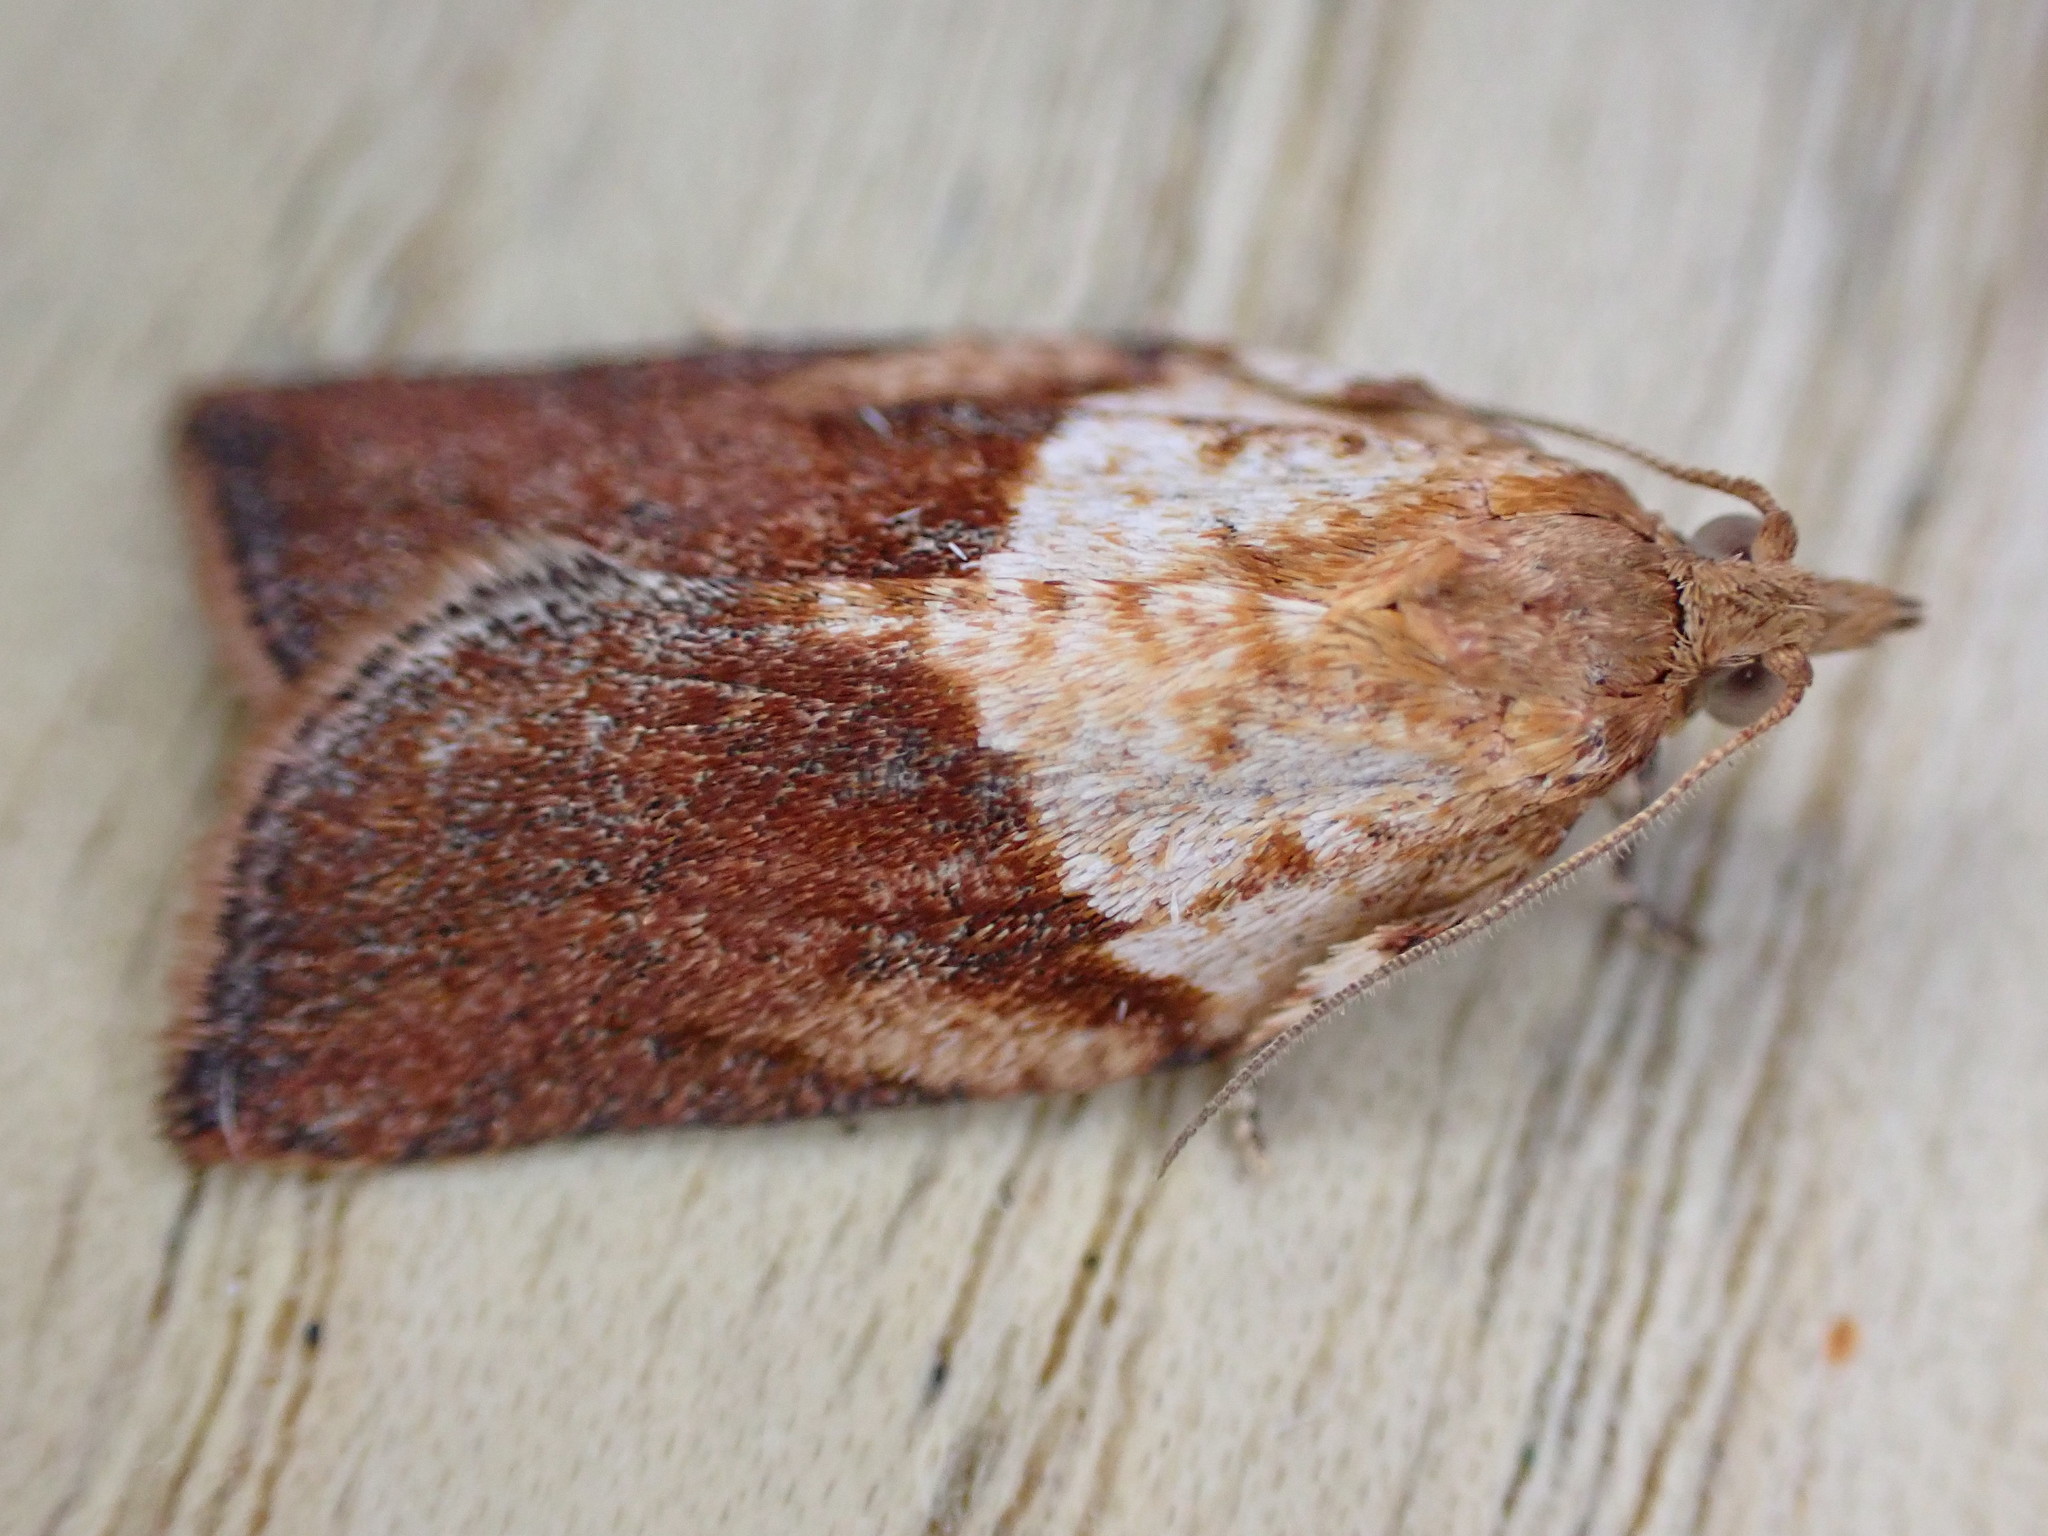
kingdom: Animalia
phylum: Arthropoda
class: Insecta
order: Lepidoptera
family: Tortricidae
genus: Epiphyas
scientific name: Epiphyas postvittana
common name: Light brown apple moth
